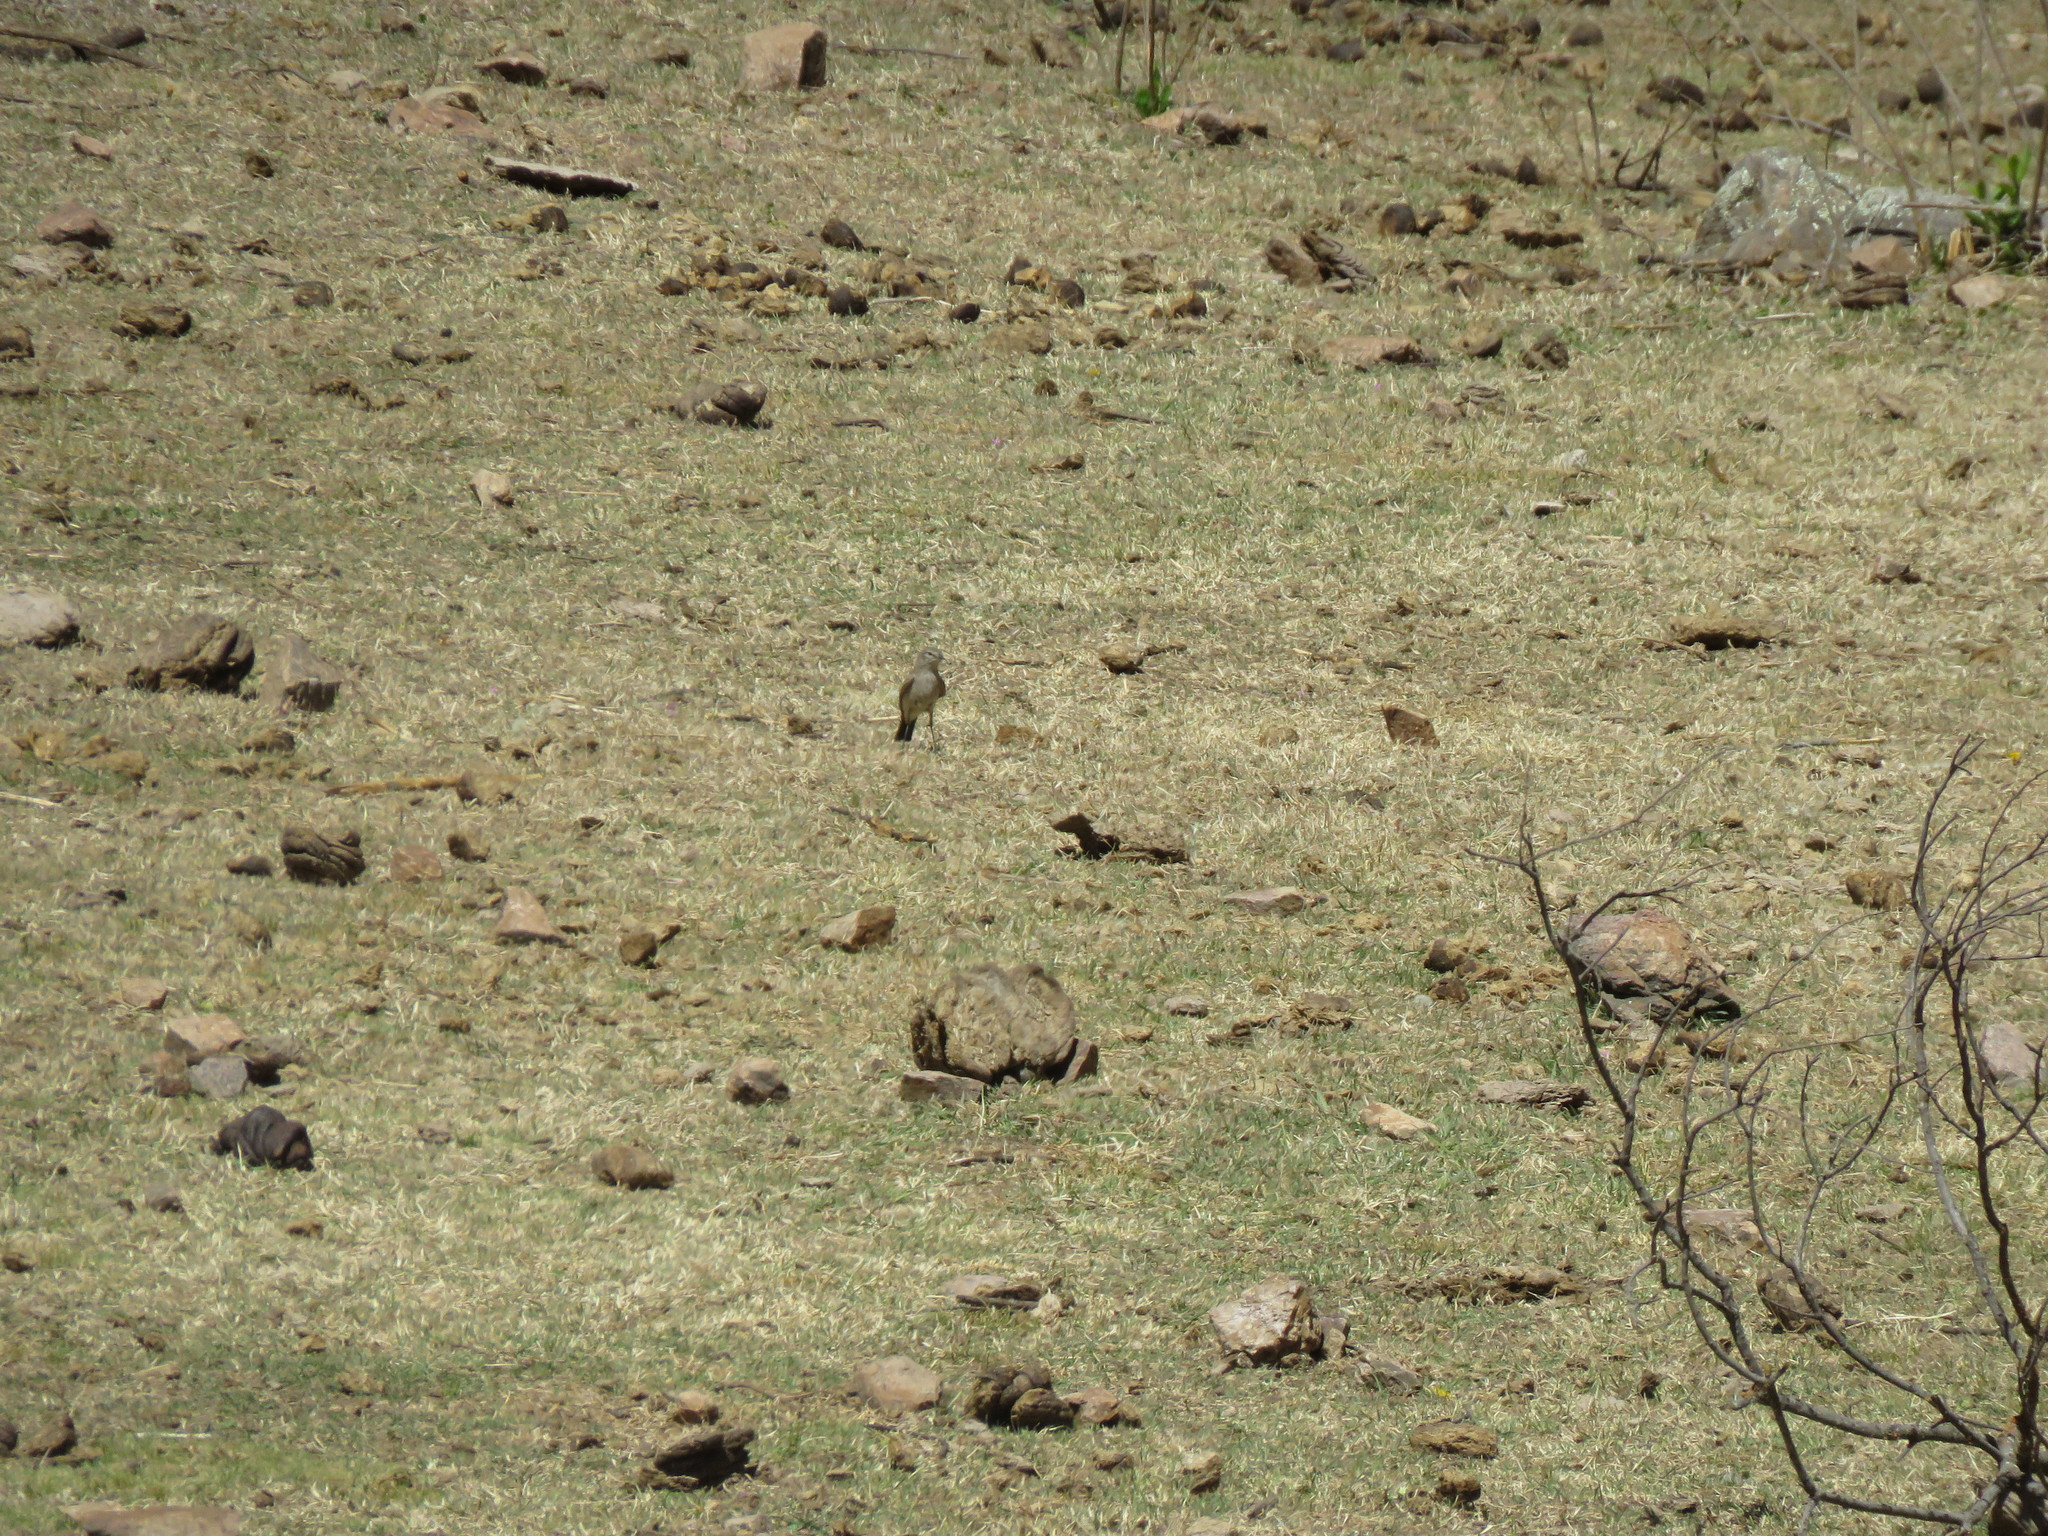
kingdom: Animalia
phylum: Chordata
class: Aves
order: Passeriformes
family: Tyrannidae
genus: Muscisaxicola
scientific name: Muscisaxicola maculirostris
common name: Spot-billed ground tyrant
